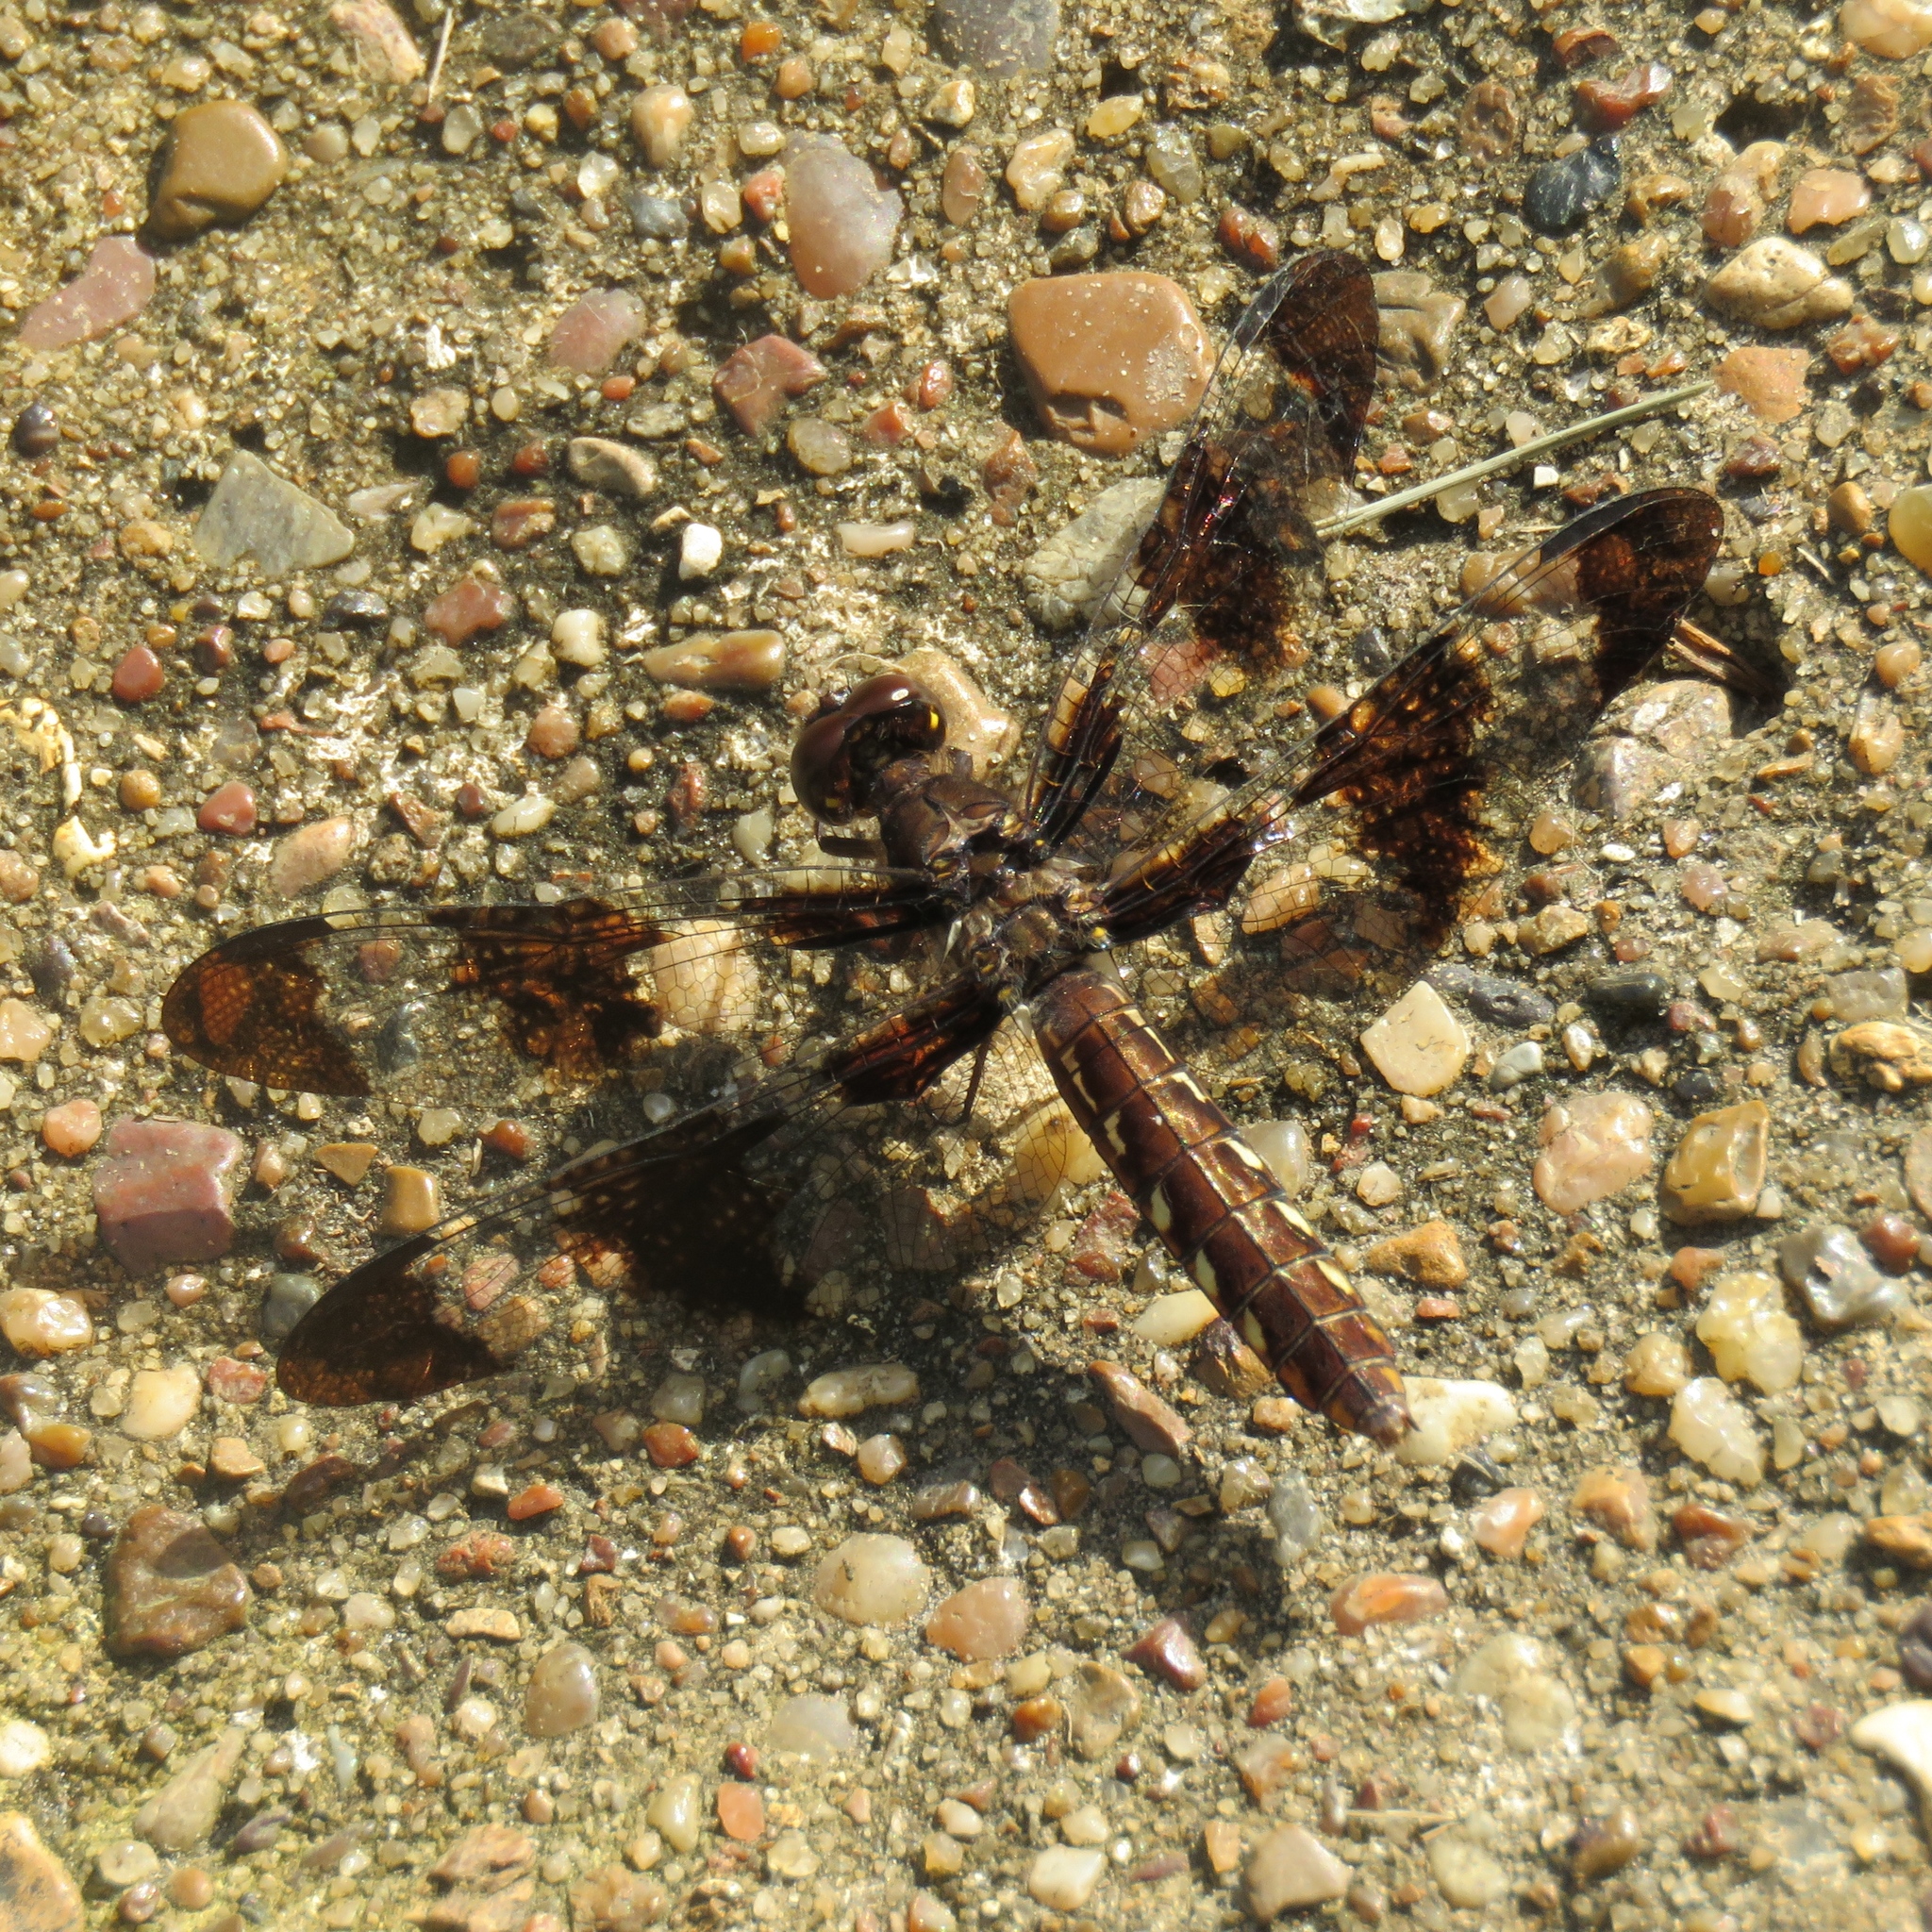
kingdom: Animalia
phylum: Arthropoda
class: Insecta
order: Odonata
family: Libellulidae
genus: Plathemis
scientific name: Plathemis lydia
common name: Common whitetail
